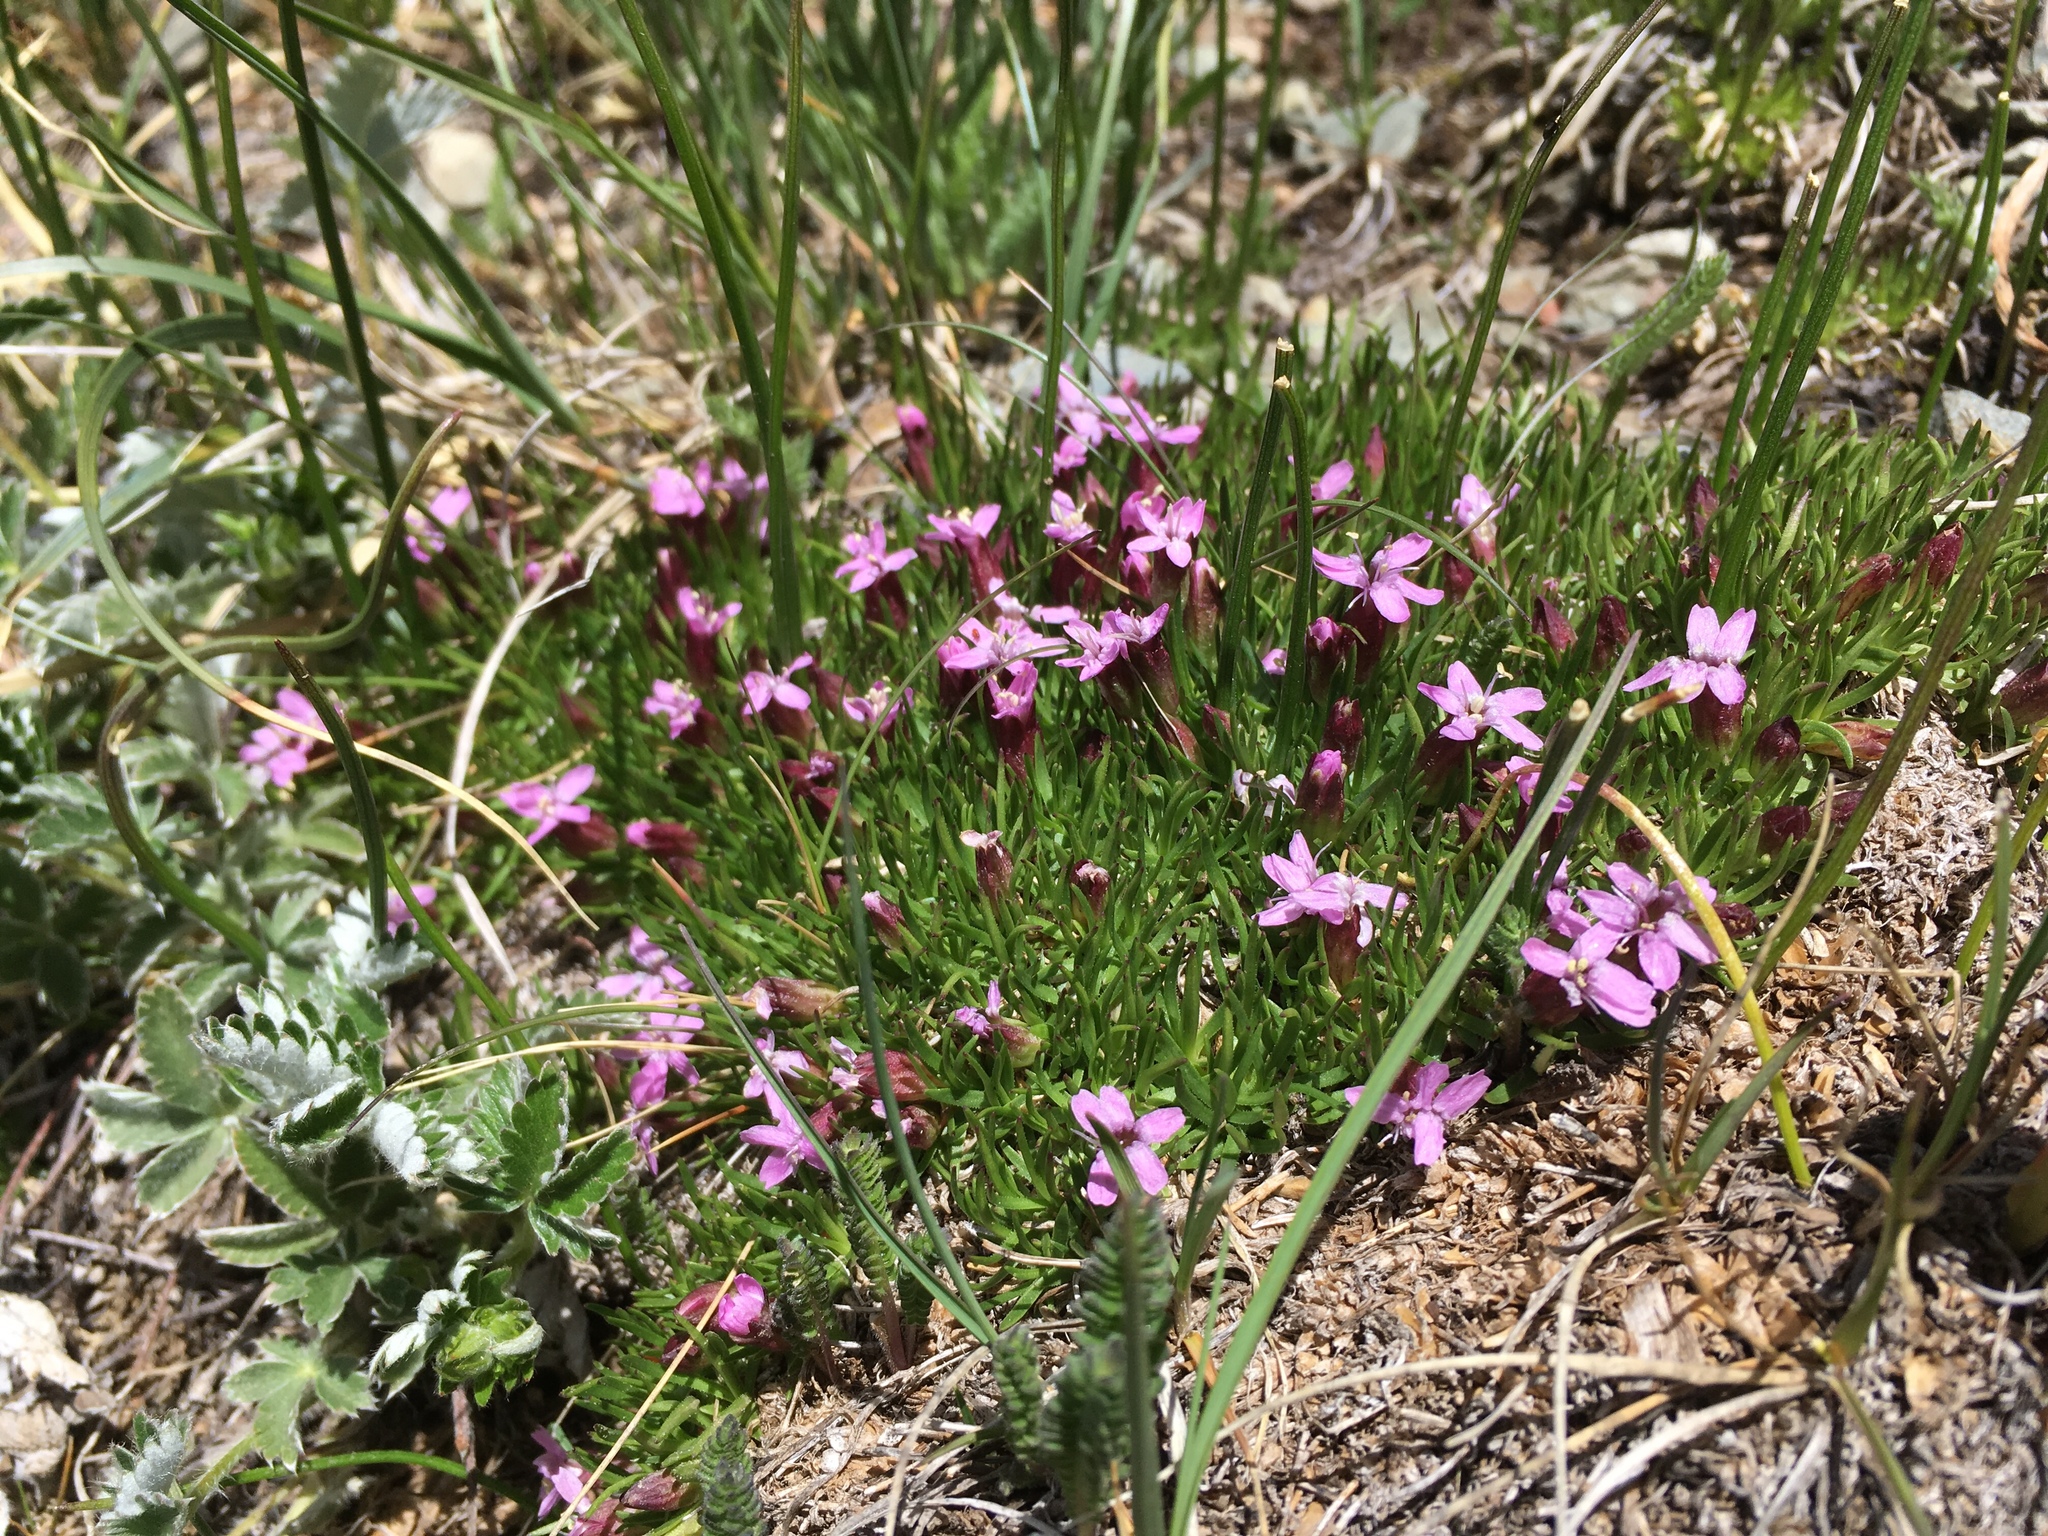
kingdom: Plantae
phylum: Tracheophyta
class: Magnoliopsida
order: Caryophyllales
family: Caryophyllaceae
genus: Silene
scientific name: Silene acaulis
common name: Moss campion
